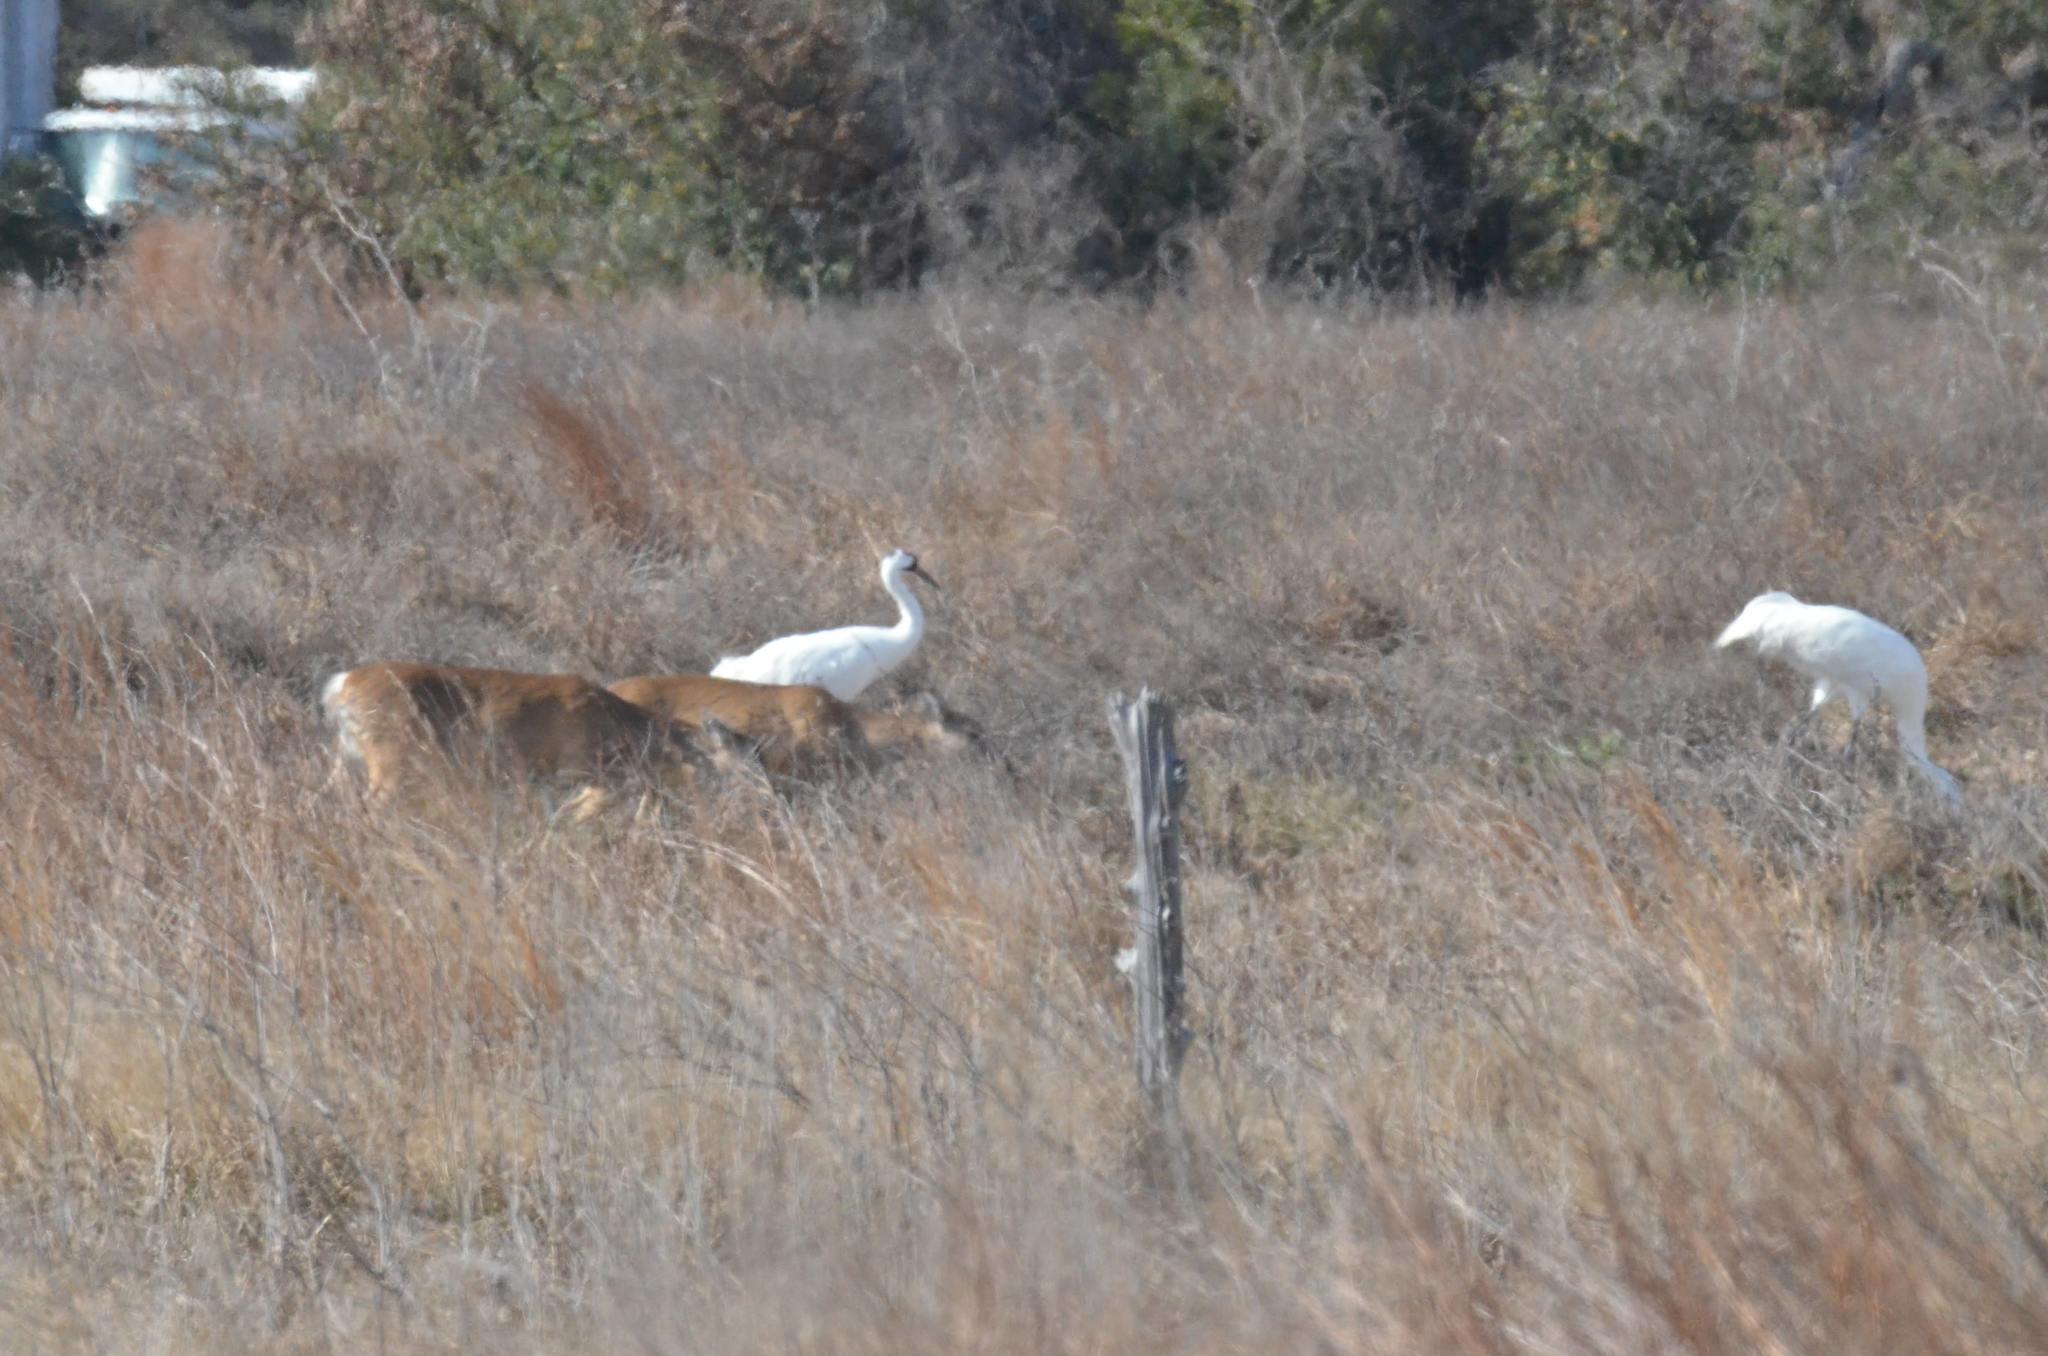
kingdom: Animalia
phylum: Chordata
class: Aves
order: Gruiformes
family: Gruidae
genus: Grus
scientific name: Grus americana
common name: Whooping crane
